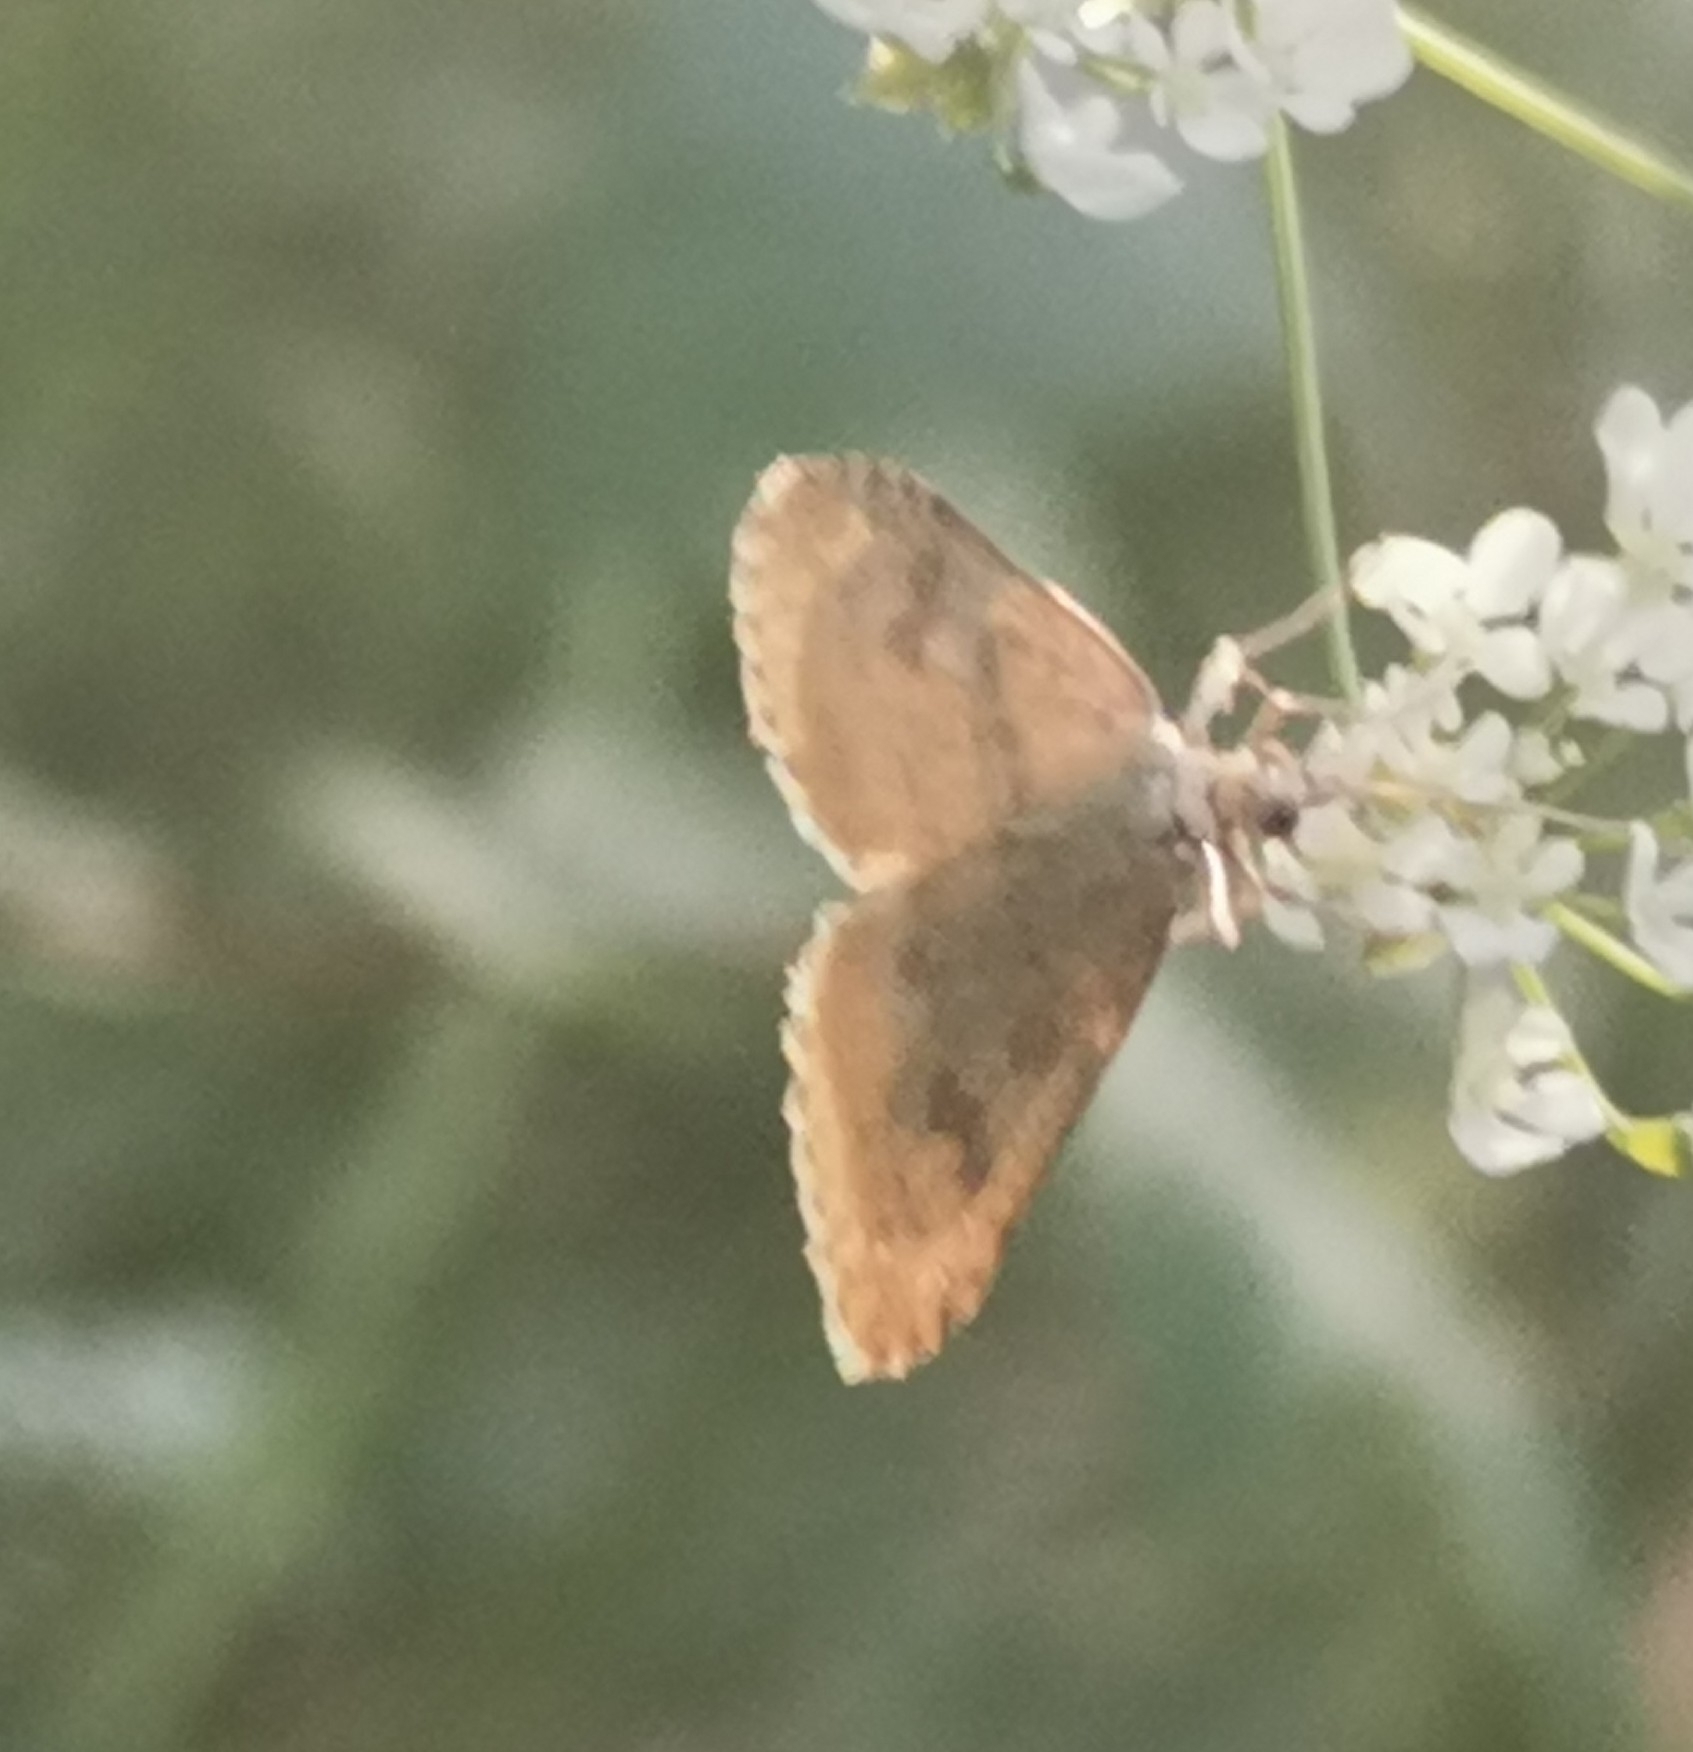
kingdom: Animalia
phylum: Arthropoda
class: Insecta
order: Lepidoptera
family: Crambidae
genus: Udea
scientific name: Udea decrepitalis
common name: Scotch pearl
